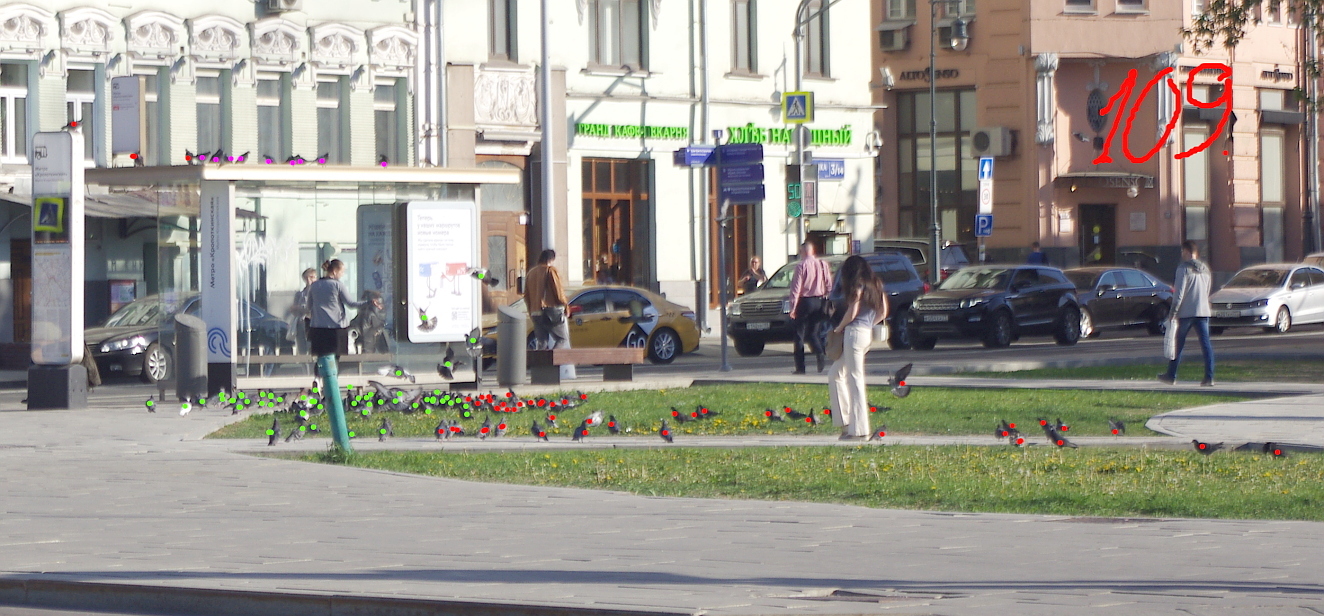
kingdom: Animalia
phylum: Chordata
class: Aves
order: Columbiformes
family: Columbidae
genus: Columba
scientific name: Columba livia
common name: Rock pigeon
